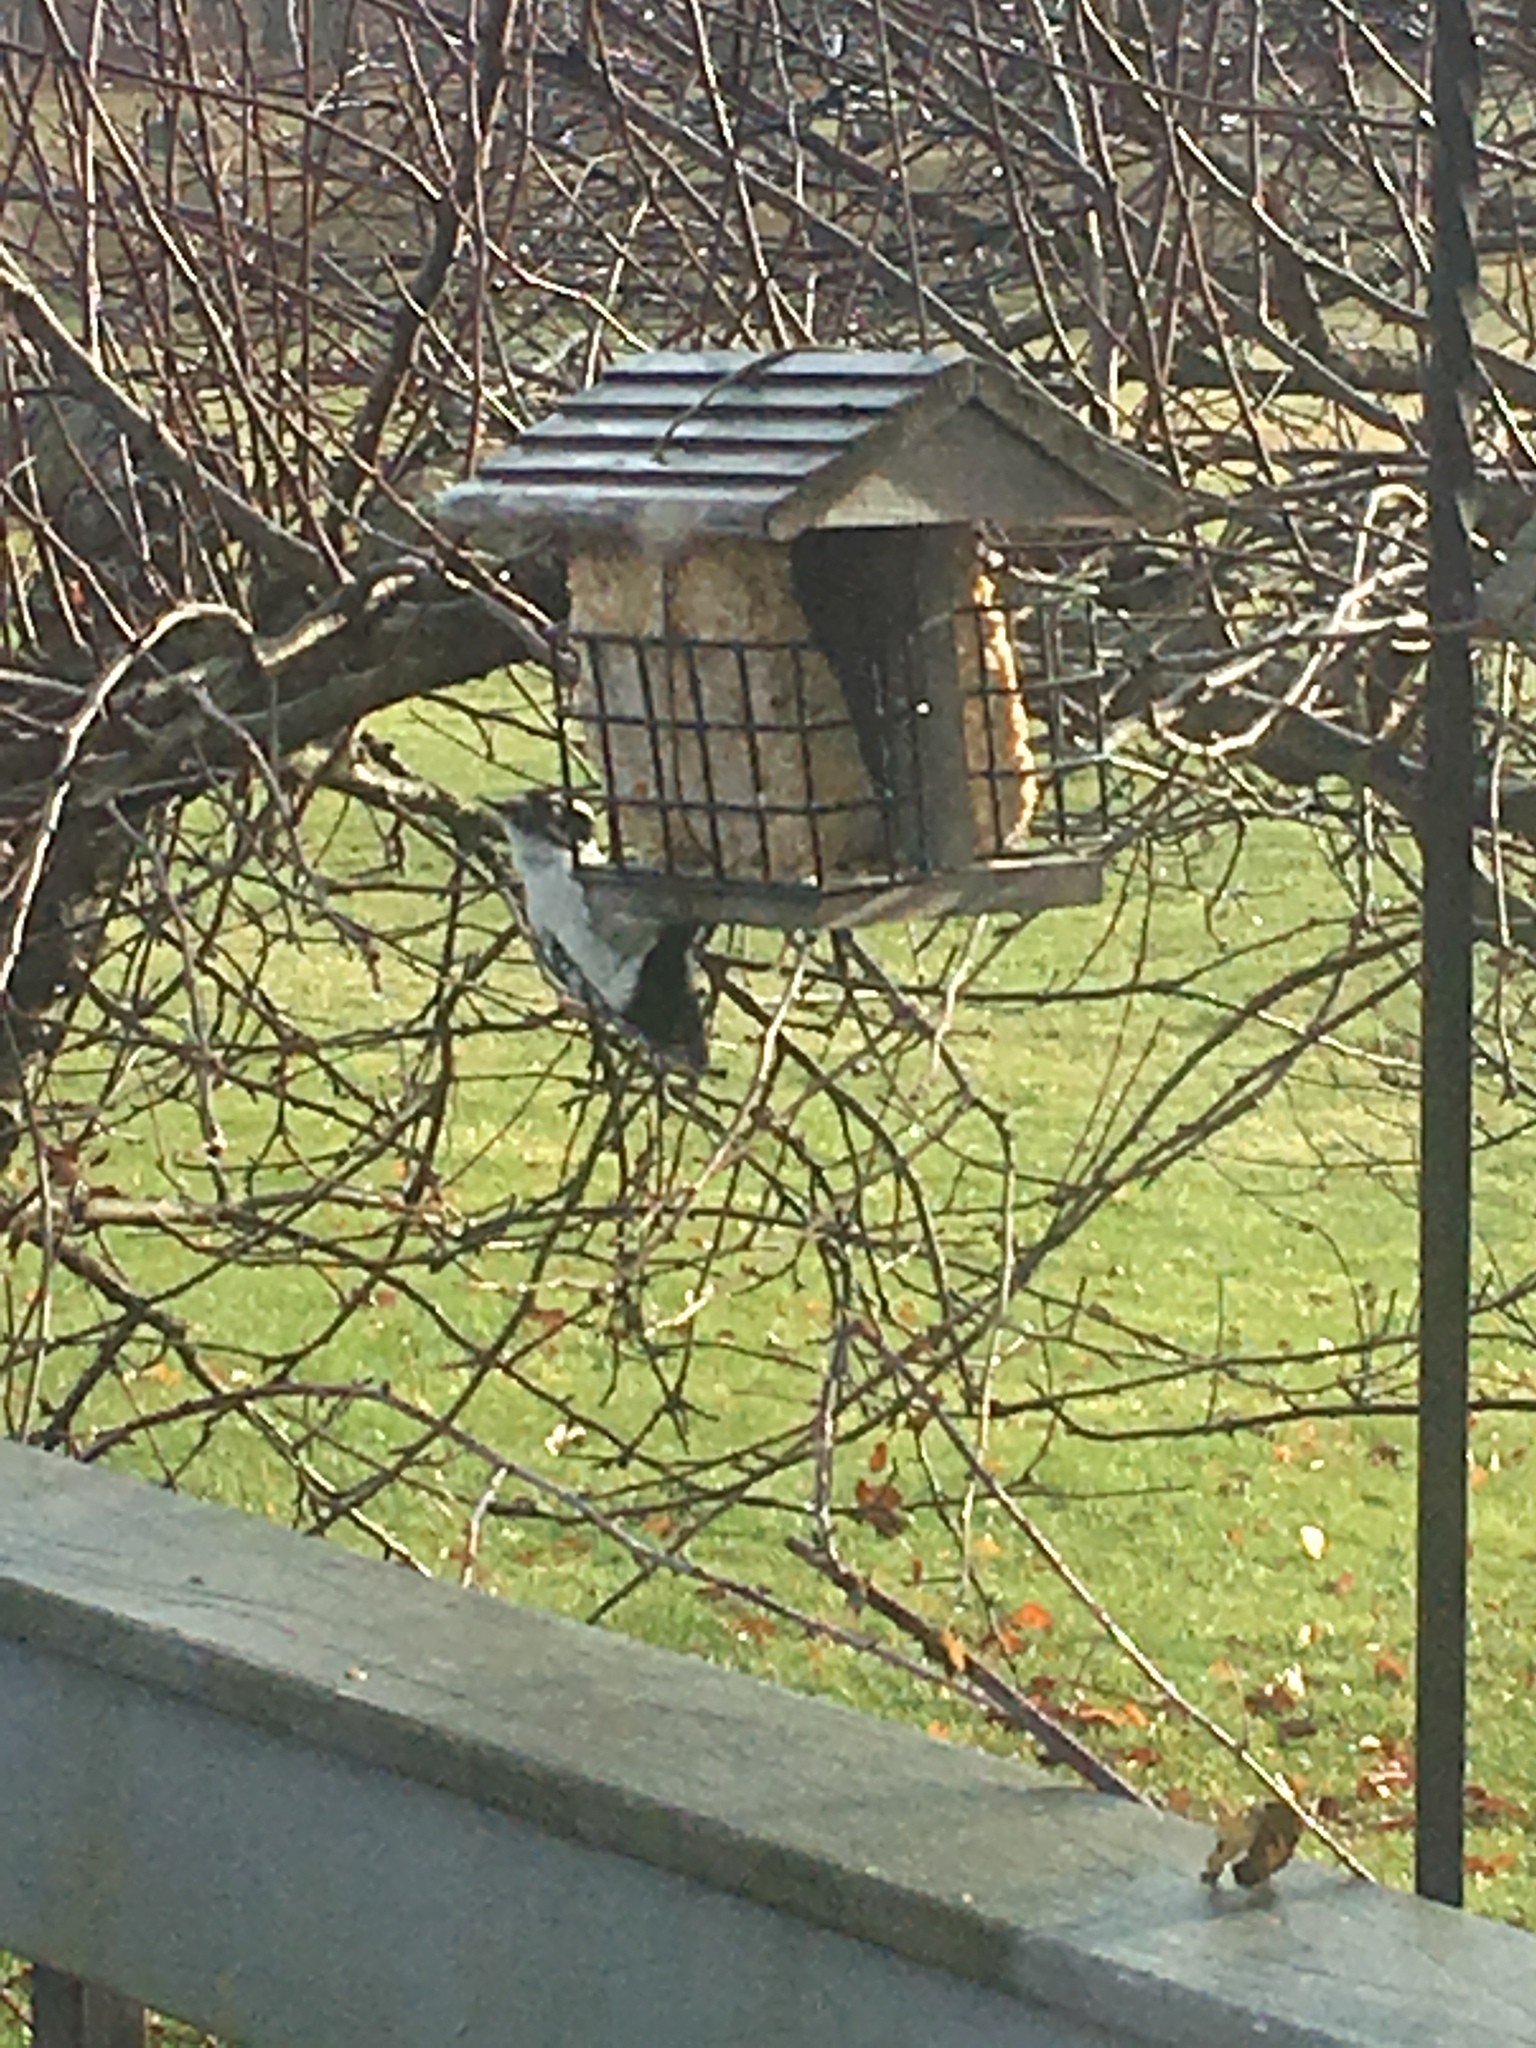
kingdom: Animalia
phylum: Chordata
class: Aves
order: Piciformes
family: Picidae
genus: Dryobates
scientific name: Dryobates pubescens
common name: Downy woodpecker
